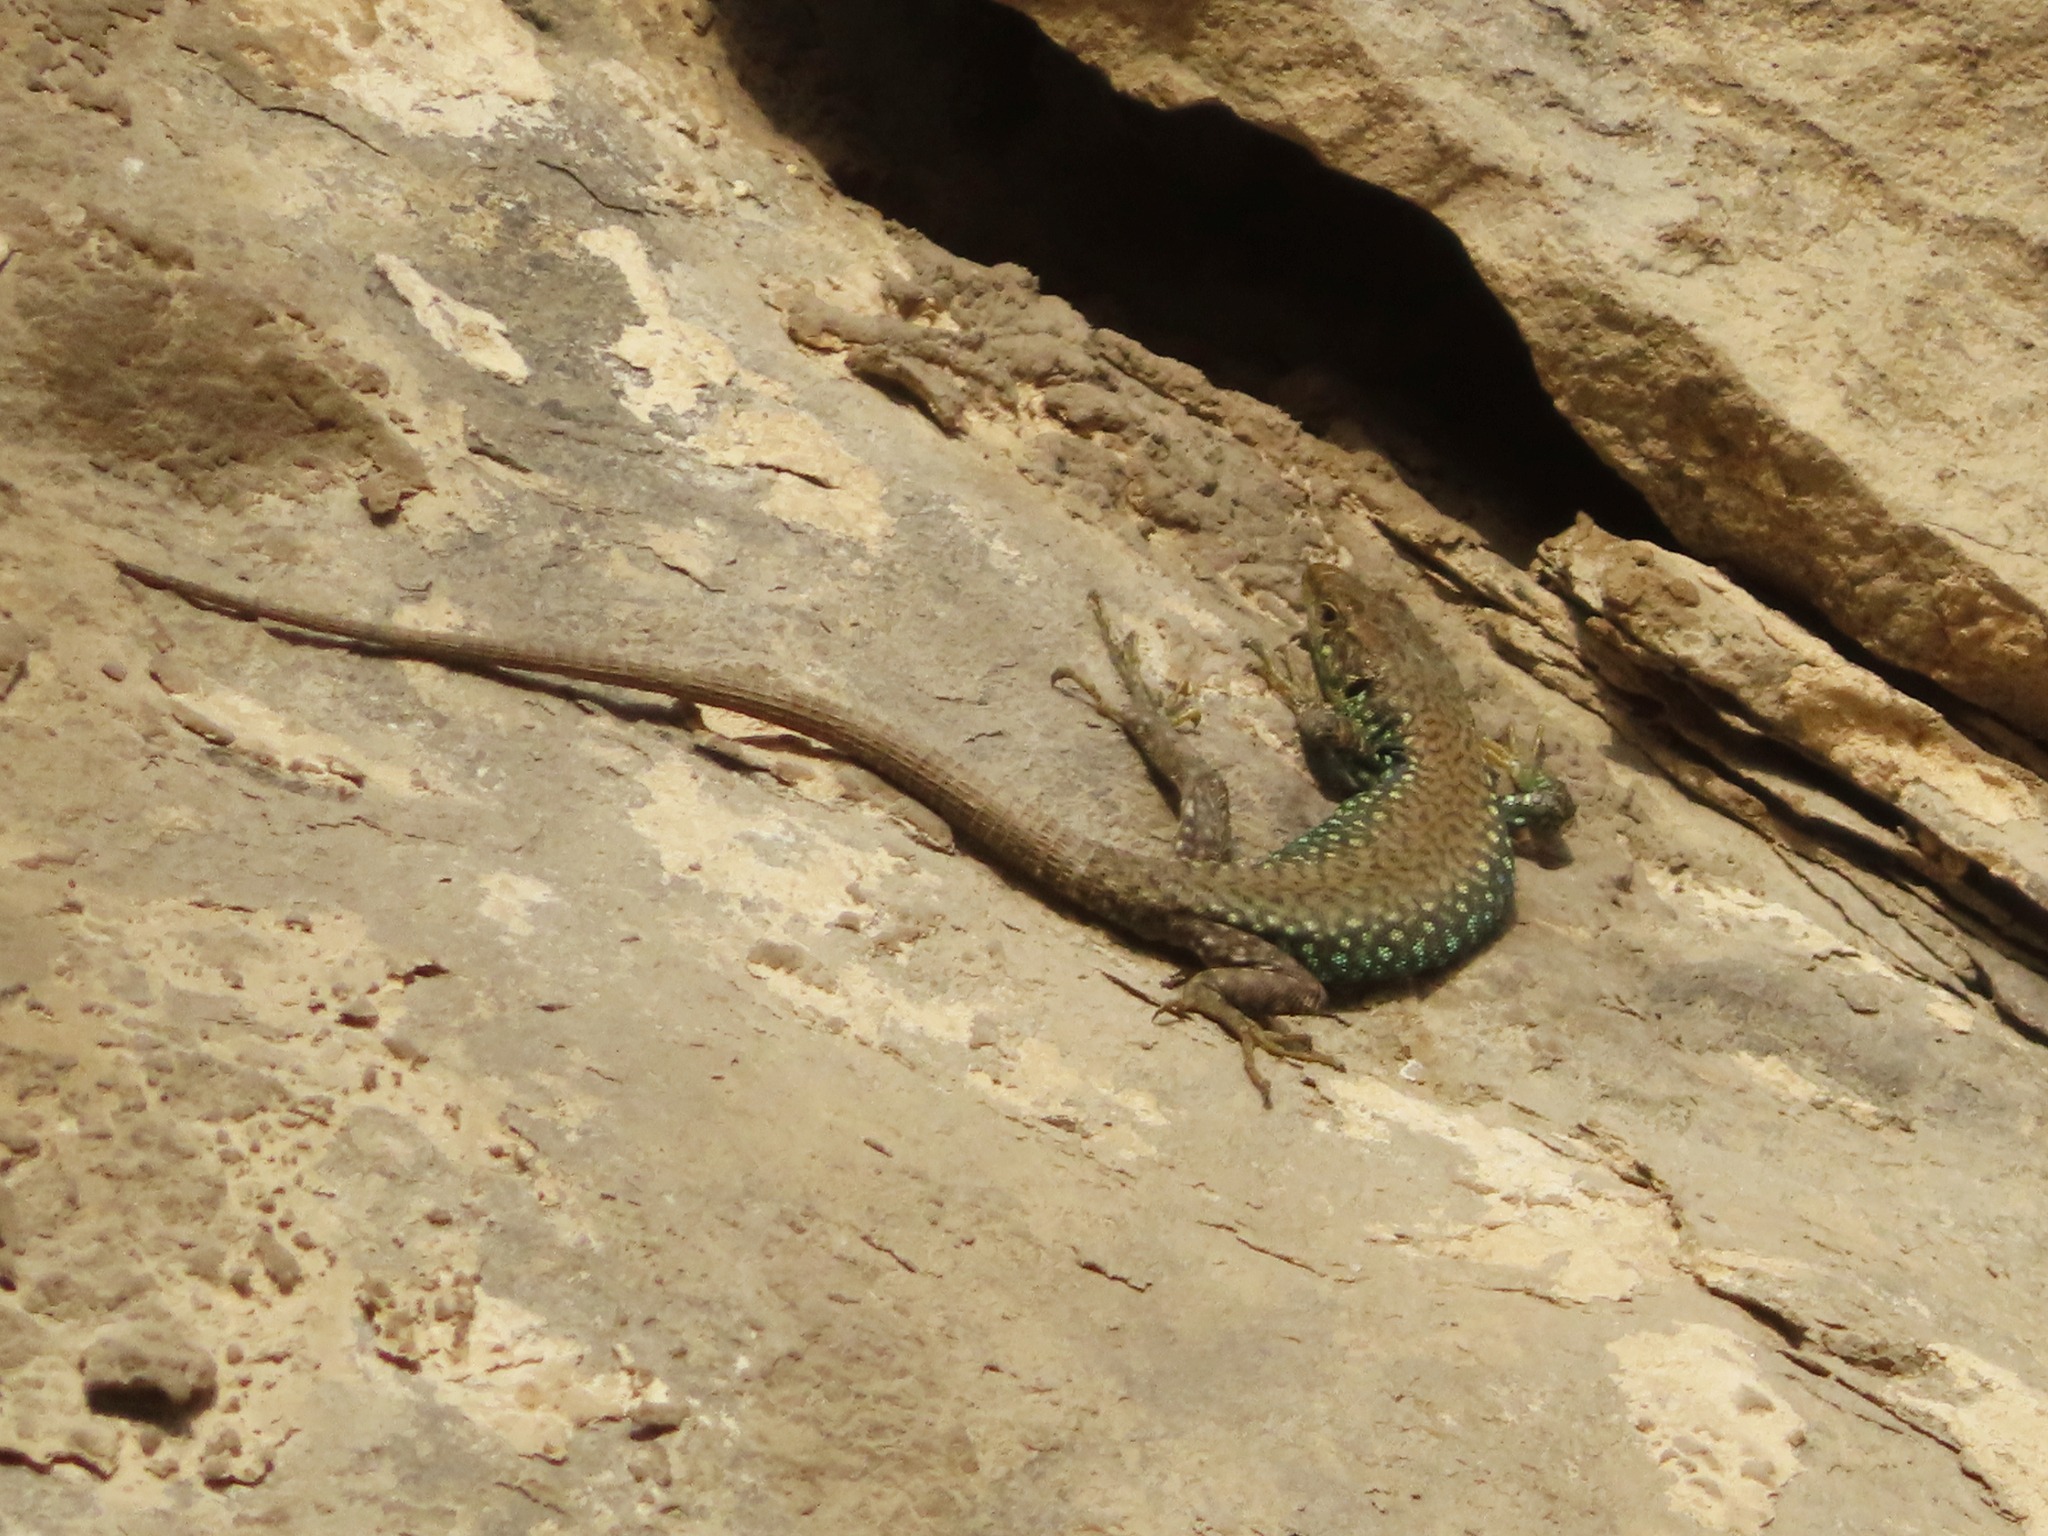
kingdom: Animalia
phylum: Chordata
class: Squamata
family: Lacertidae
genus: Darevskia
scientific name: Darevskia
